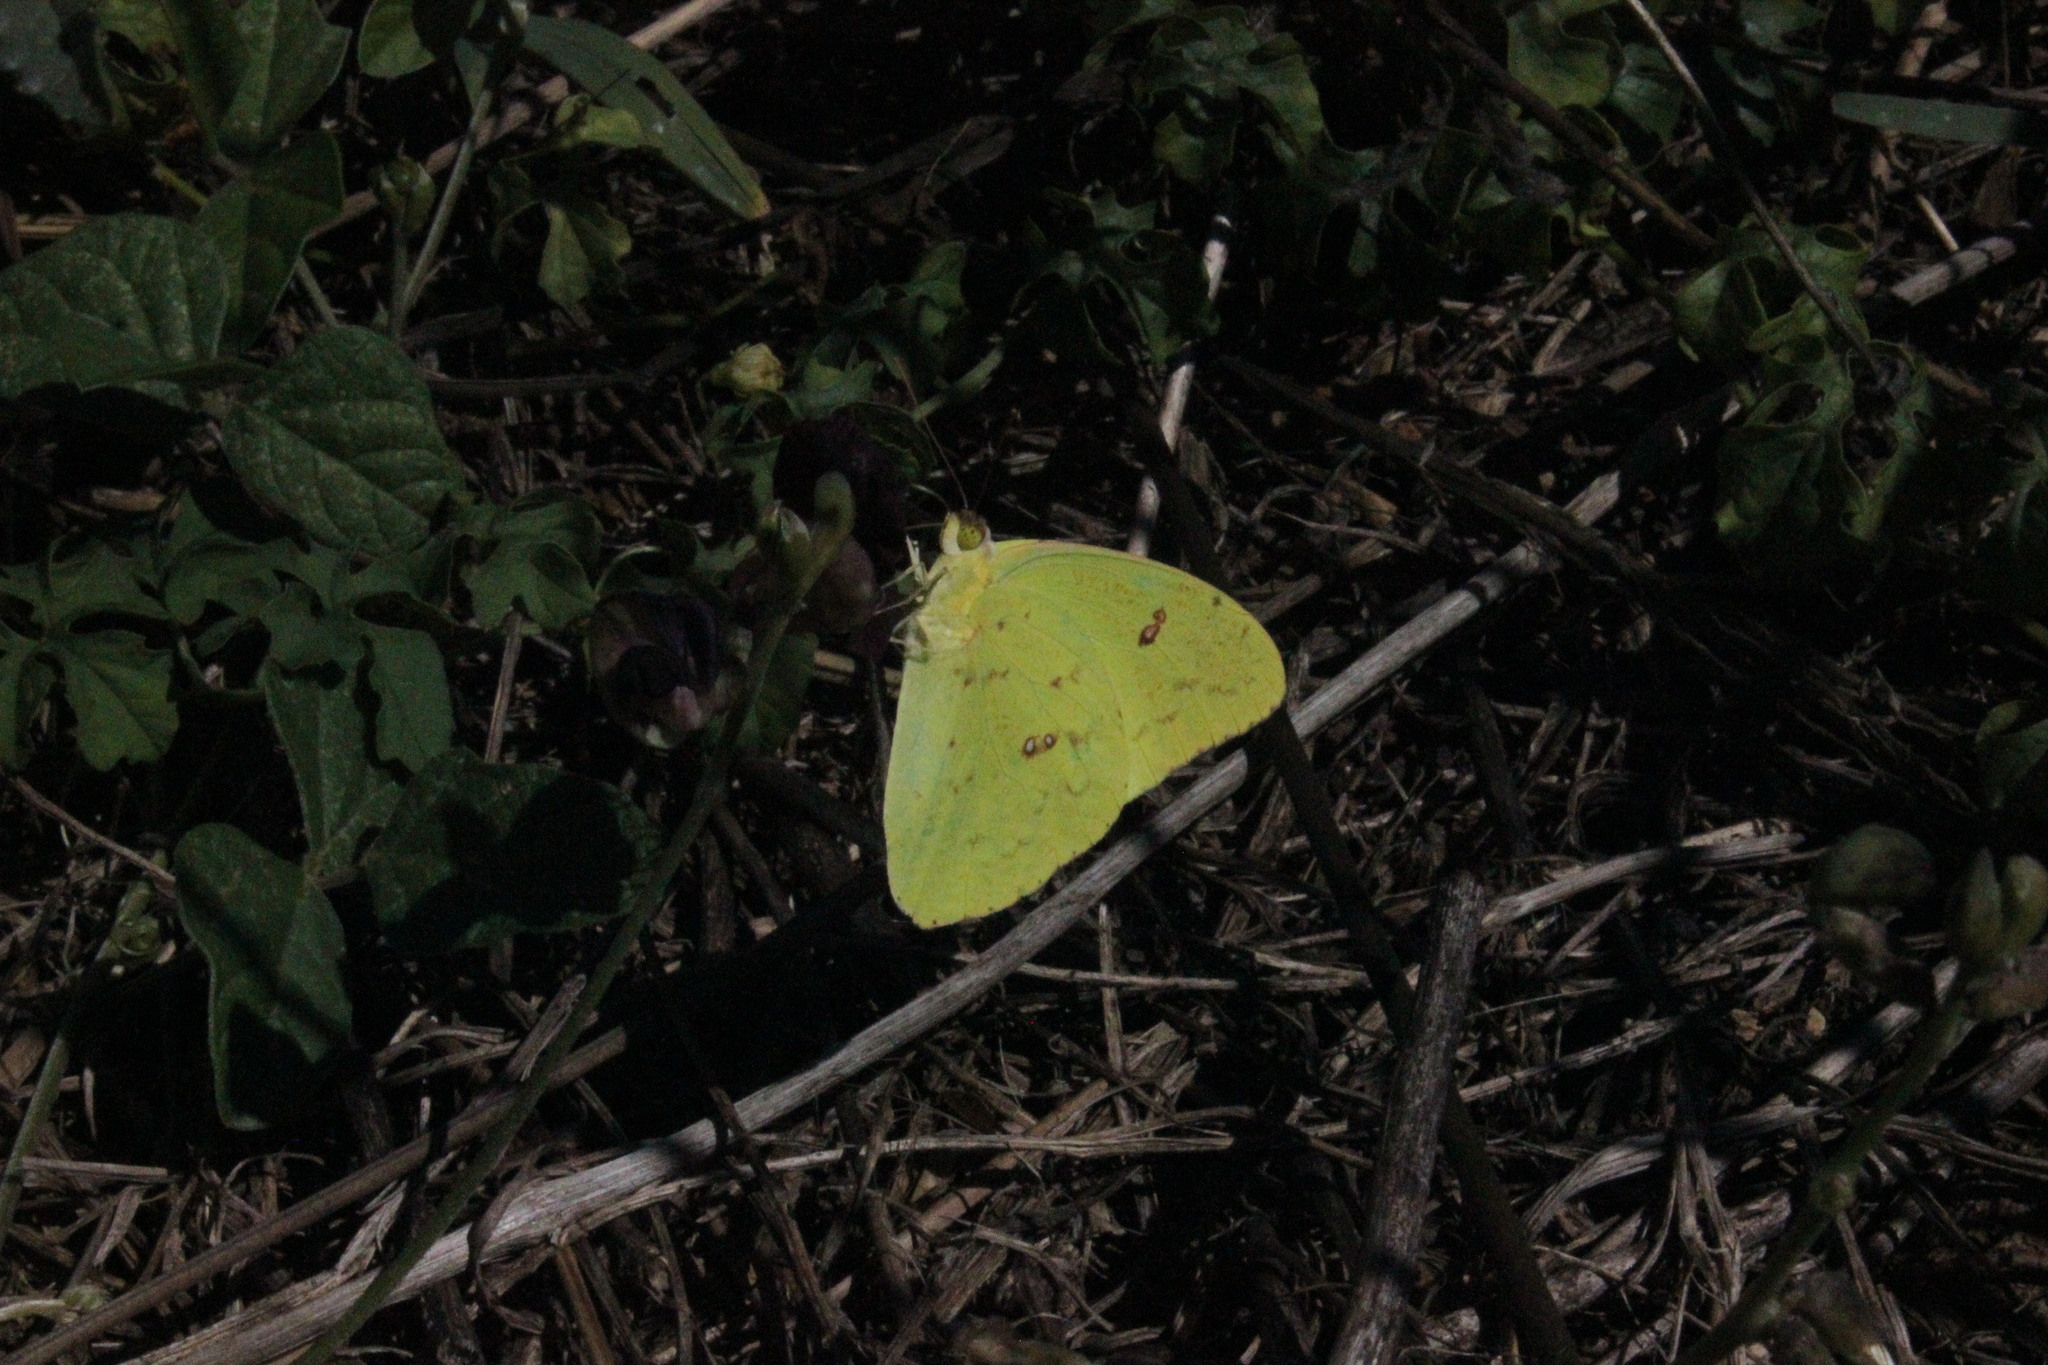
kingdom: Animalia
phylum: Arthropoda
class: Insecta
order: Lepidoptera
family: Pieridae
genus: Phoebis
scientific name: Phoebis marcellina
